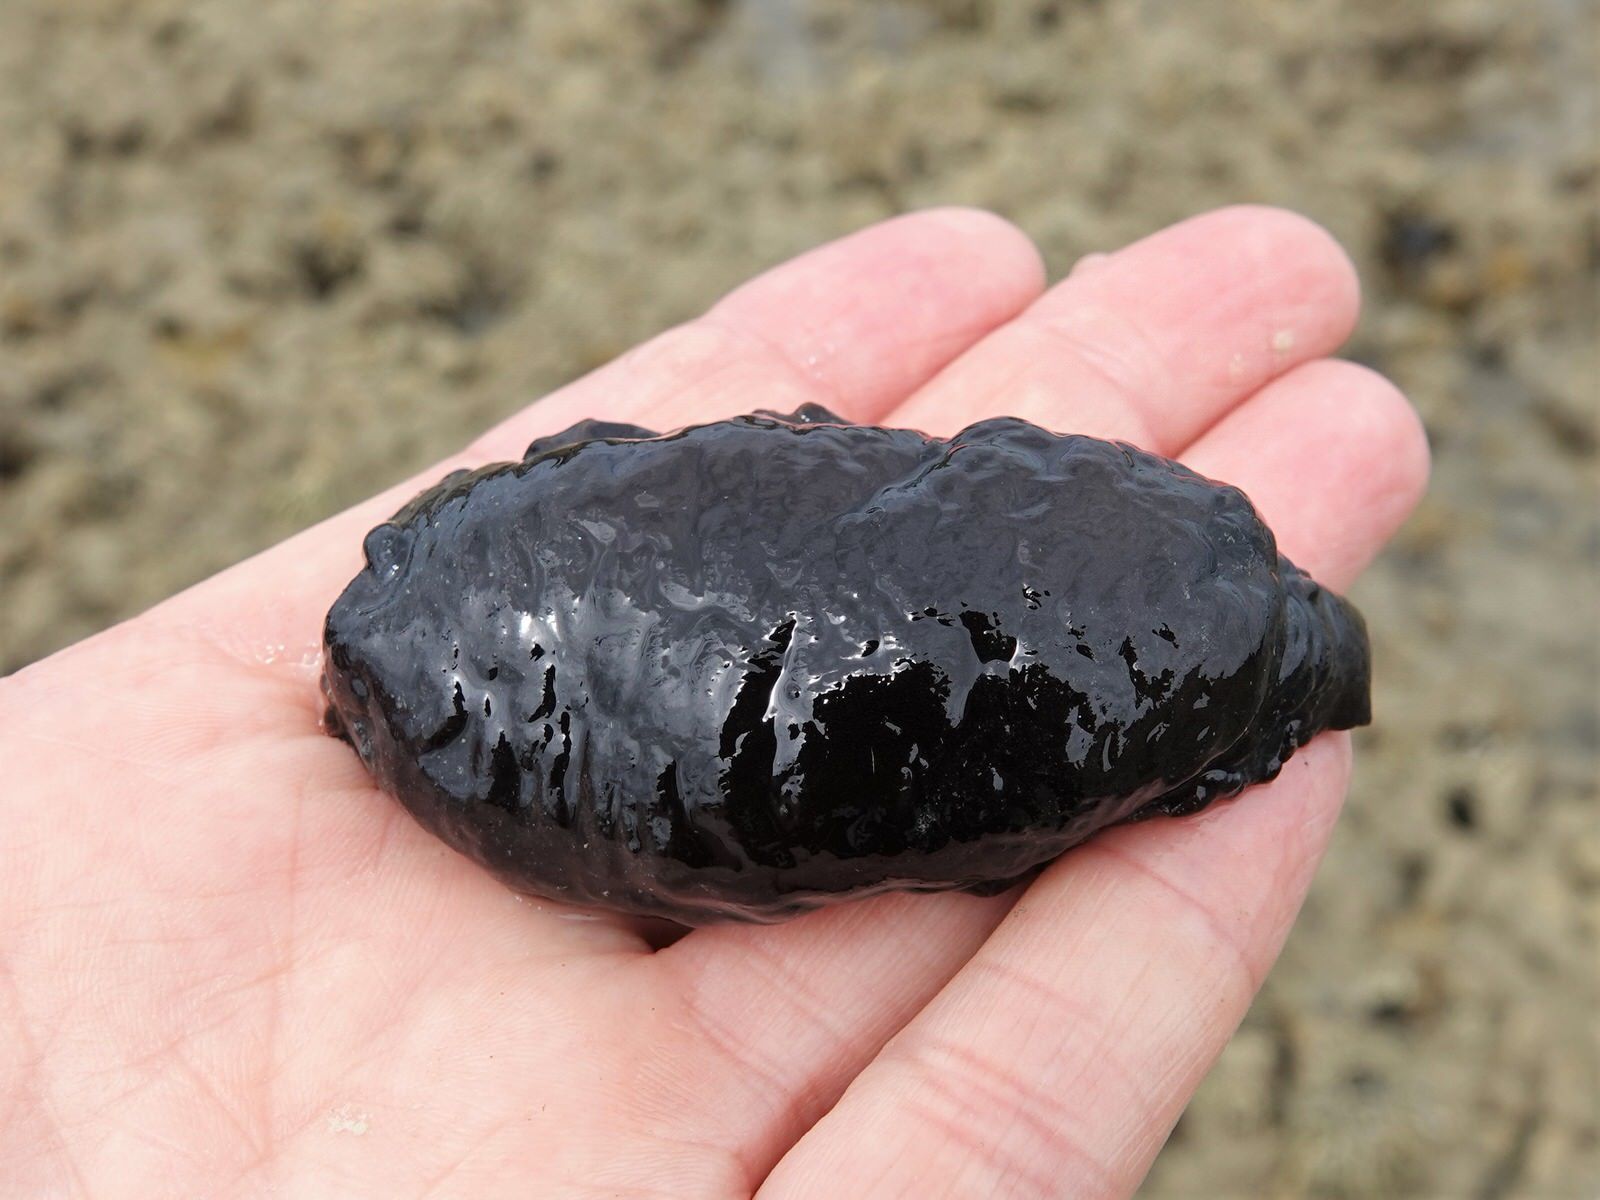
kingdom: Animalia
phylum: Mollusca
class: Gastropoda
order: Nudibranchia
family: Dendrodorididae
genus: Dendrodoris
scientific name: Dendrodoris nigra
